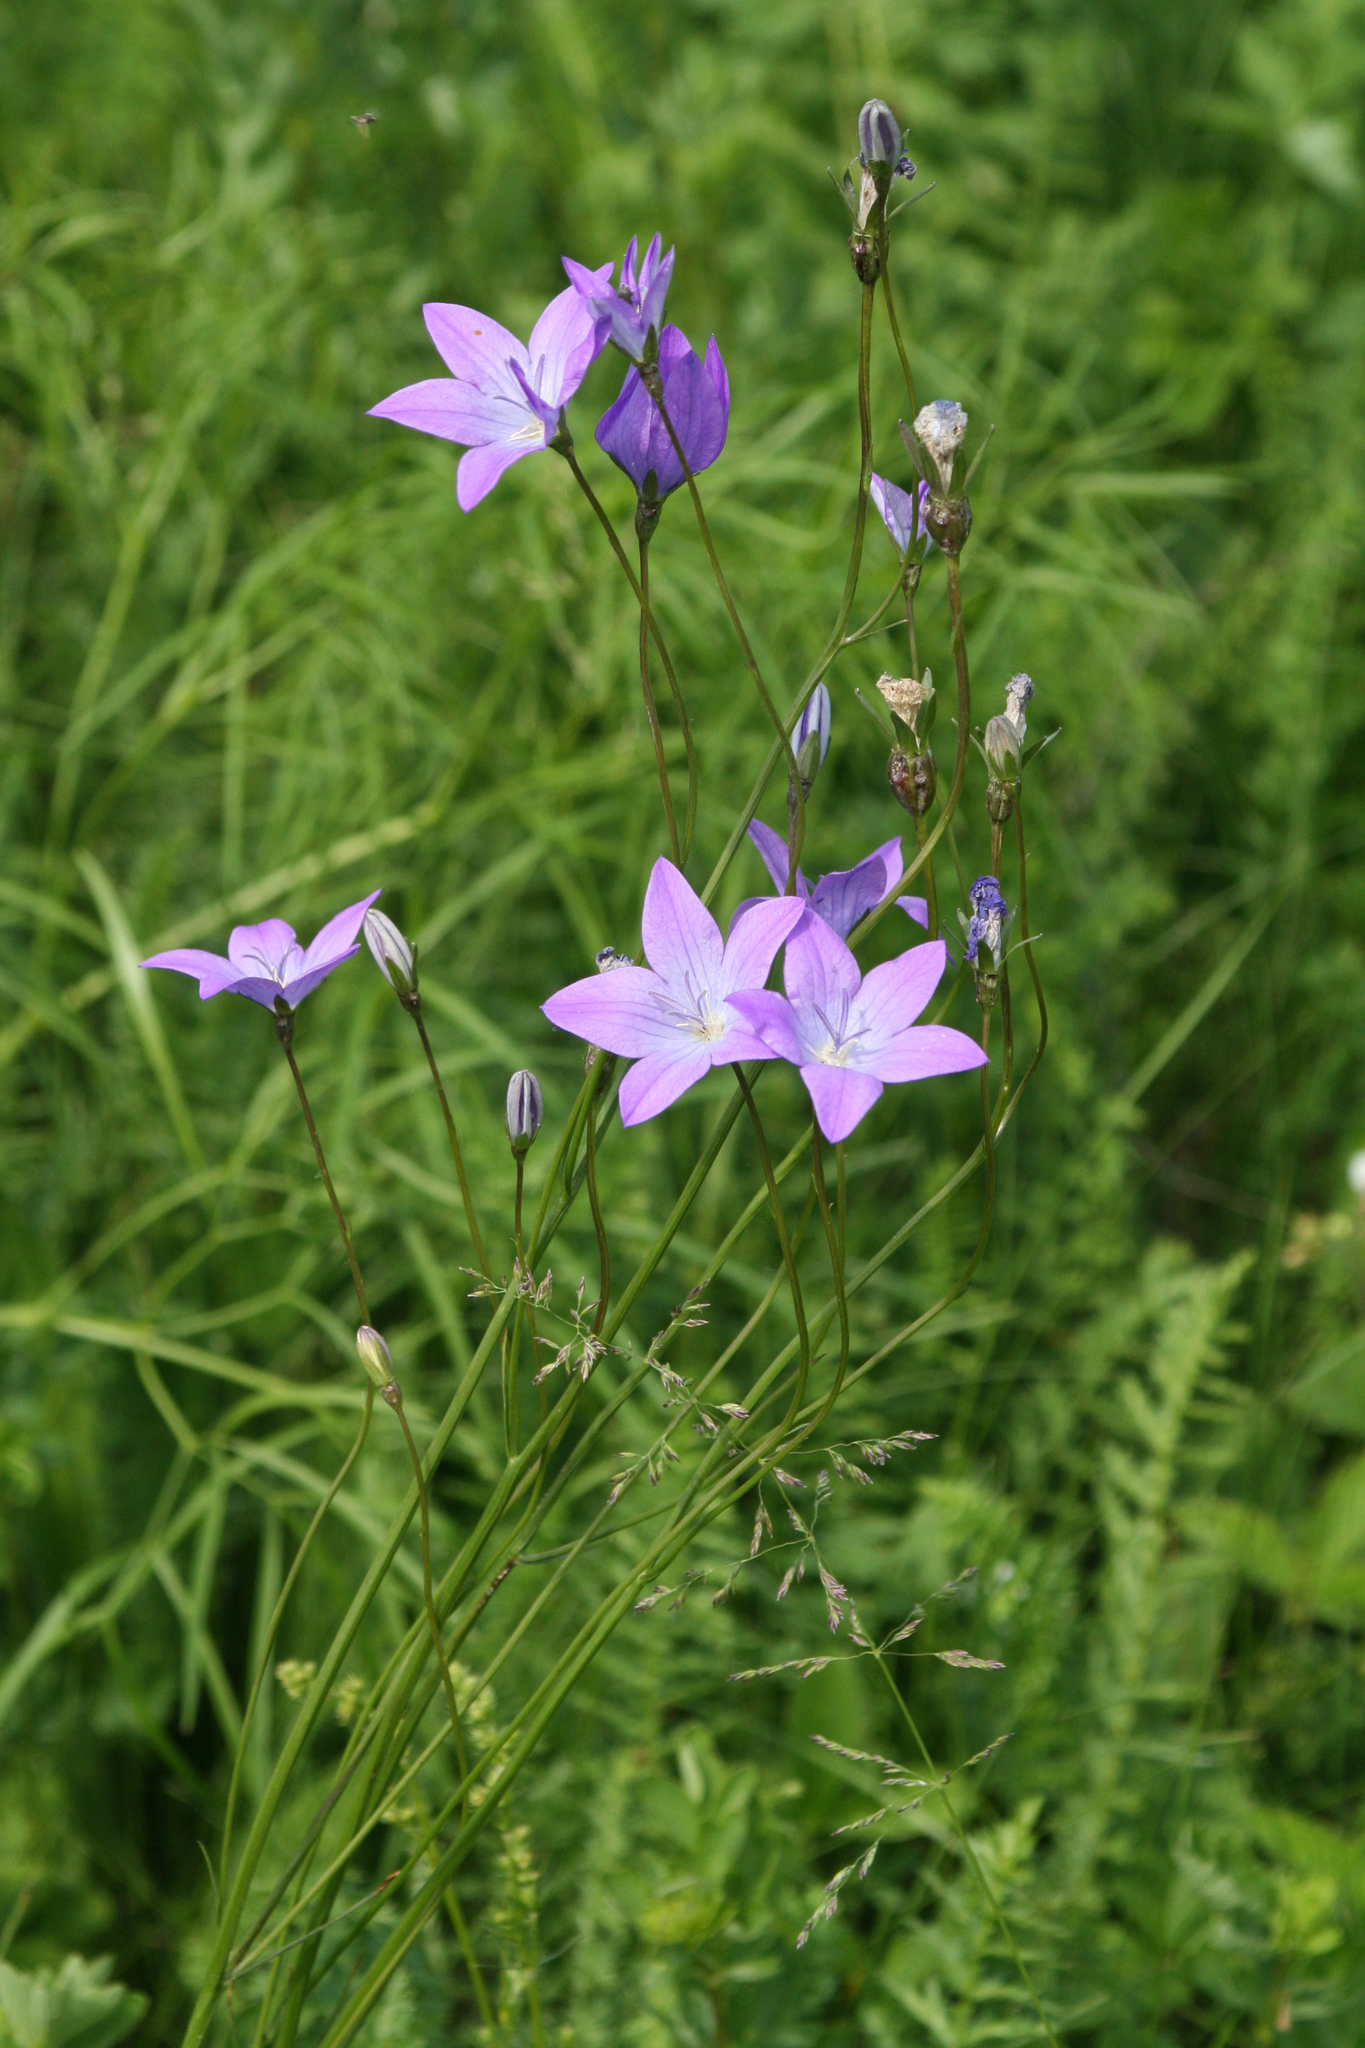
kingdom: Plantae
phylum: Tracheophyta
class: Magnoliopsida
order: Asterales
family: Campanulaceae
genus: Campanula
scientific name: Campanula stevenii
